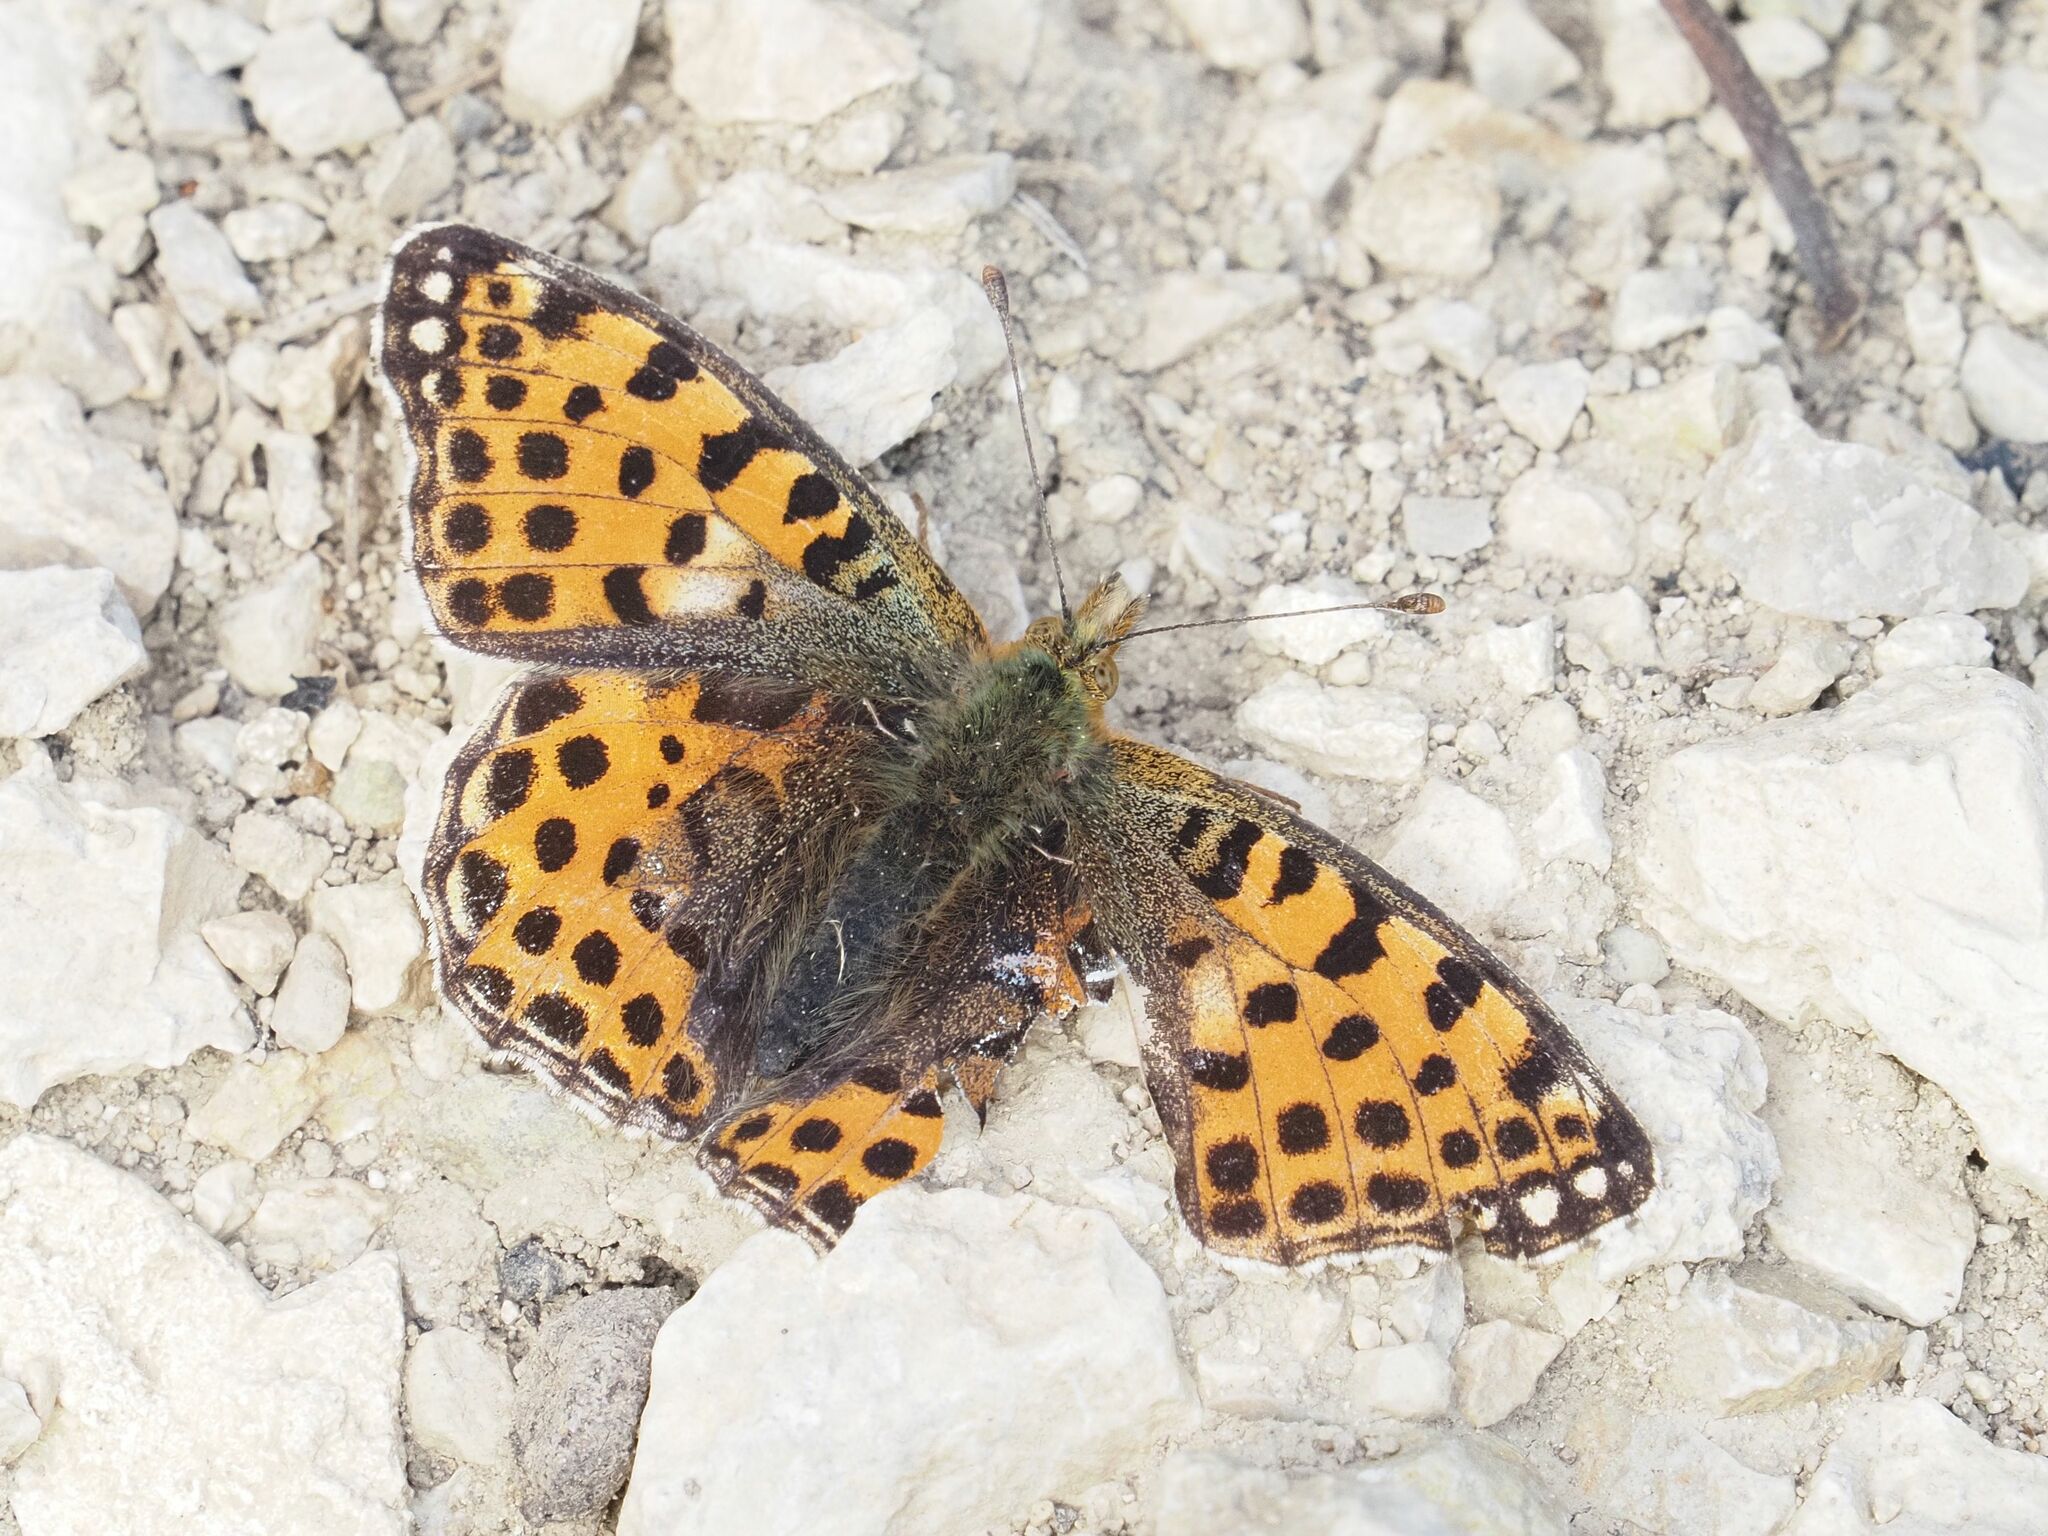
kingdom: Animalia
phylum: Arthropoda
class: Insecta
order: Lepidoptera
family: Nymphalidae
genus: Issoria
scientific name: Issoria lathonia
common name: Queen of spain fritillary
